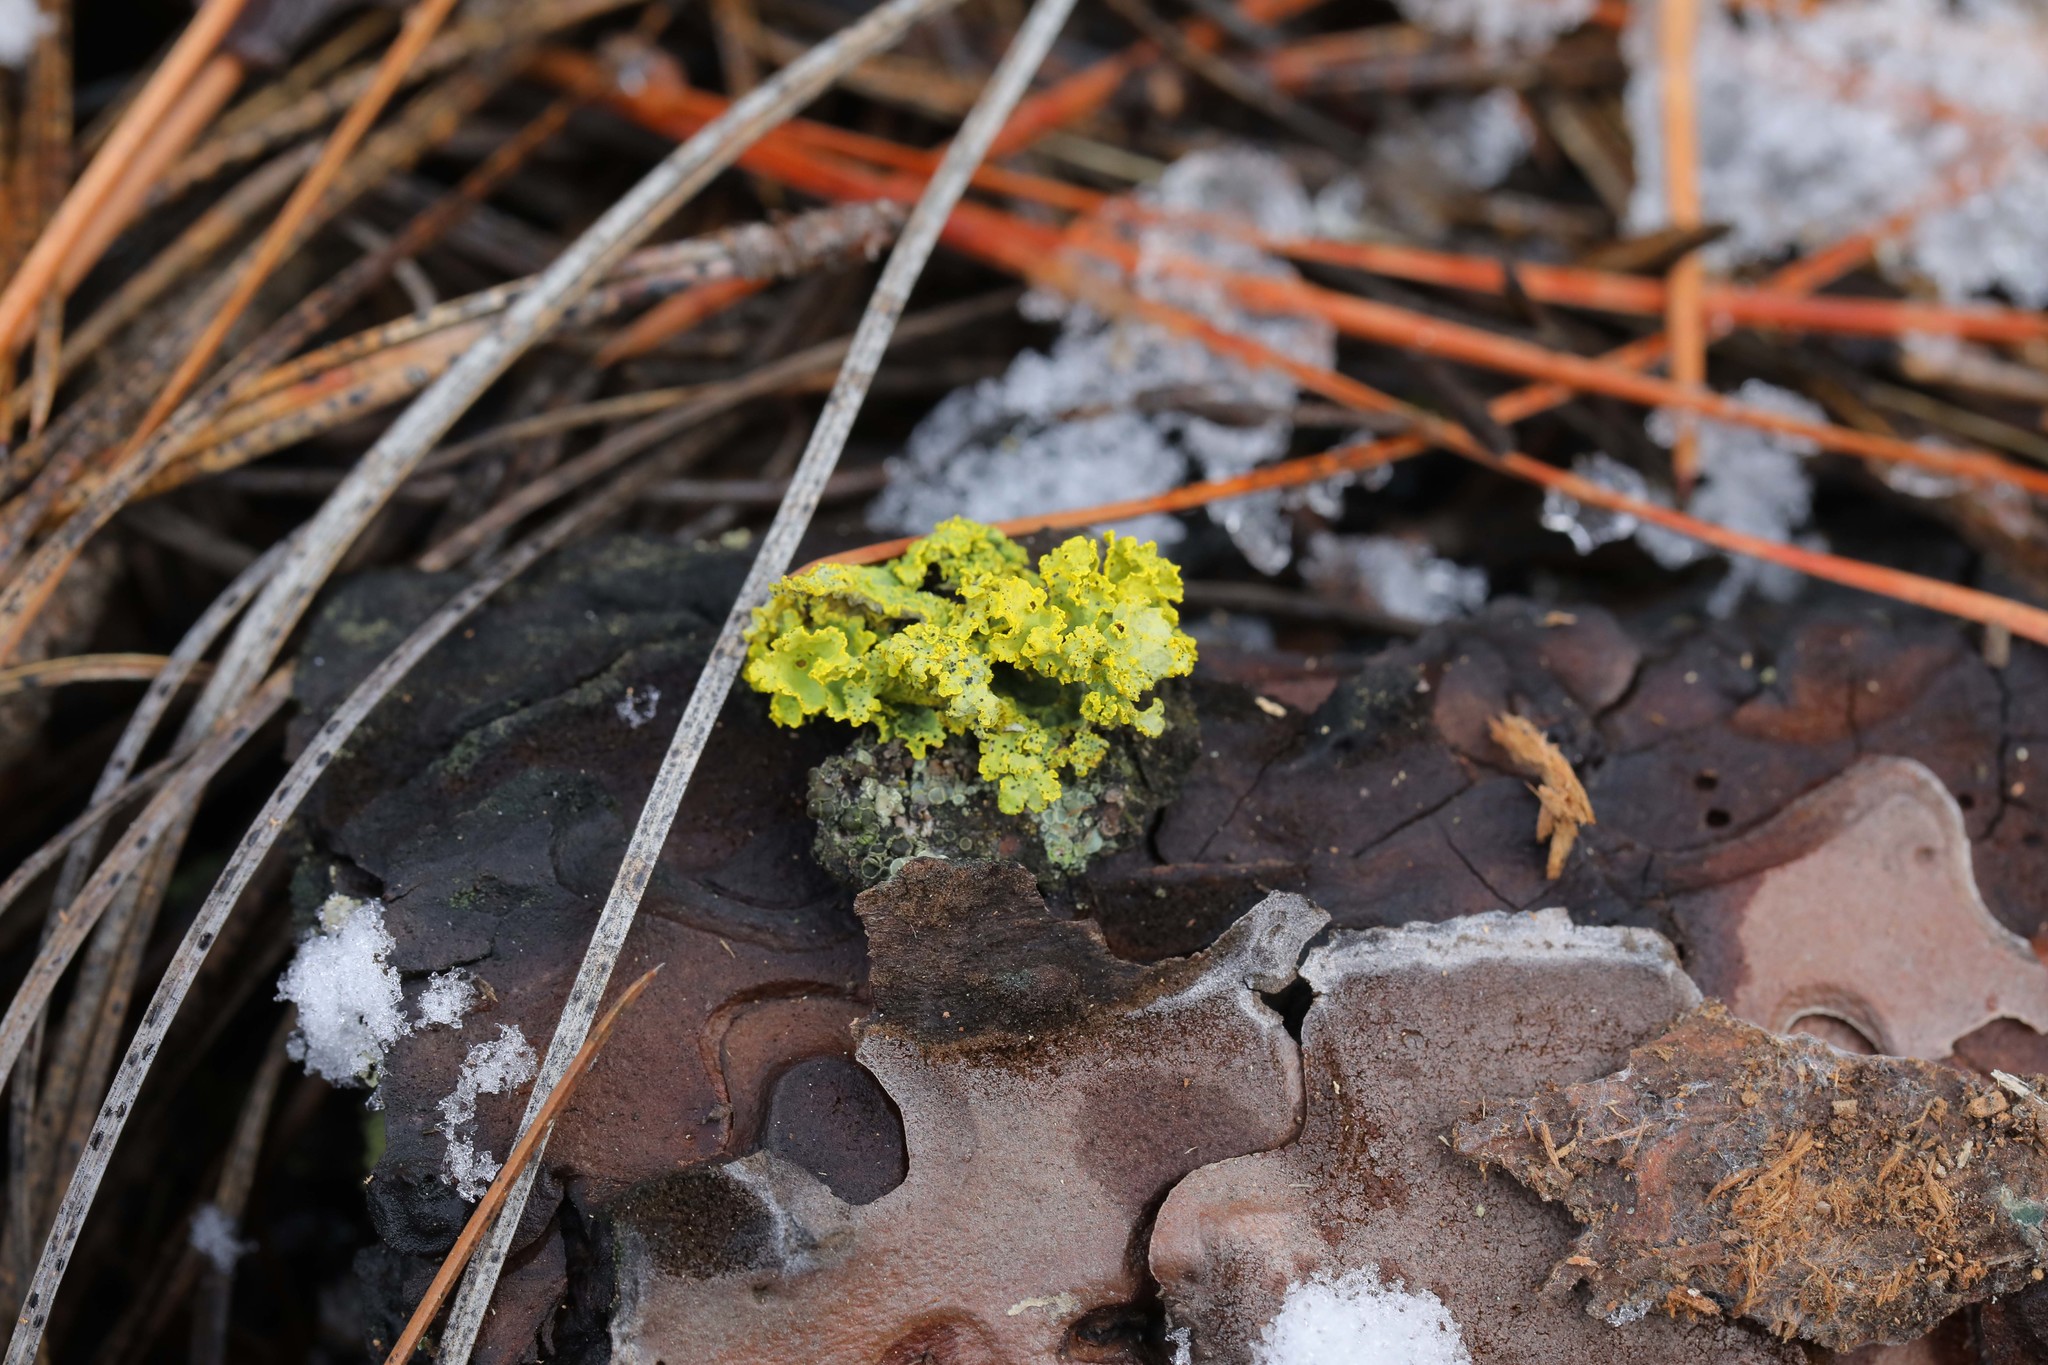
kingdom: Fungi
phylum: Ascomycota
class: Lecanoromycetes
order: Lecanorales
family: Parmeliaceae
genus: Vulpicida
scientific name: Vulpicida canadensis
